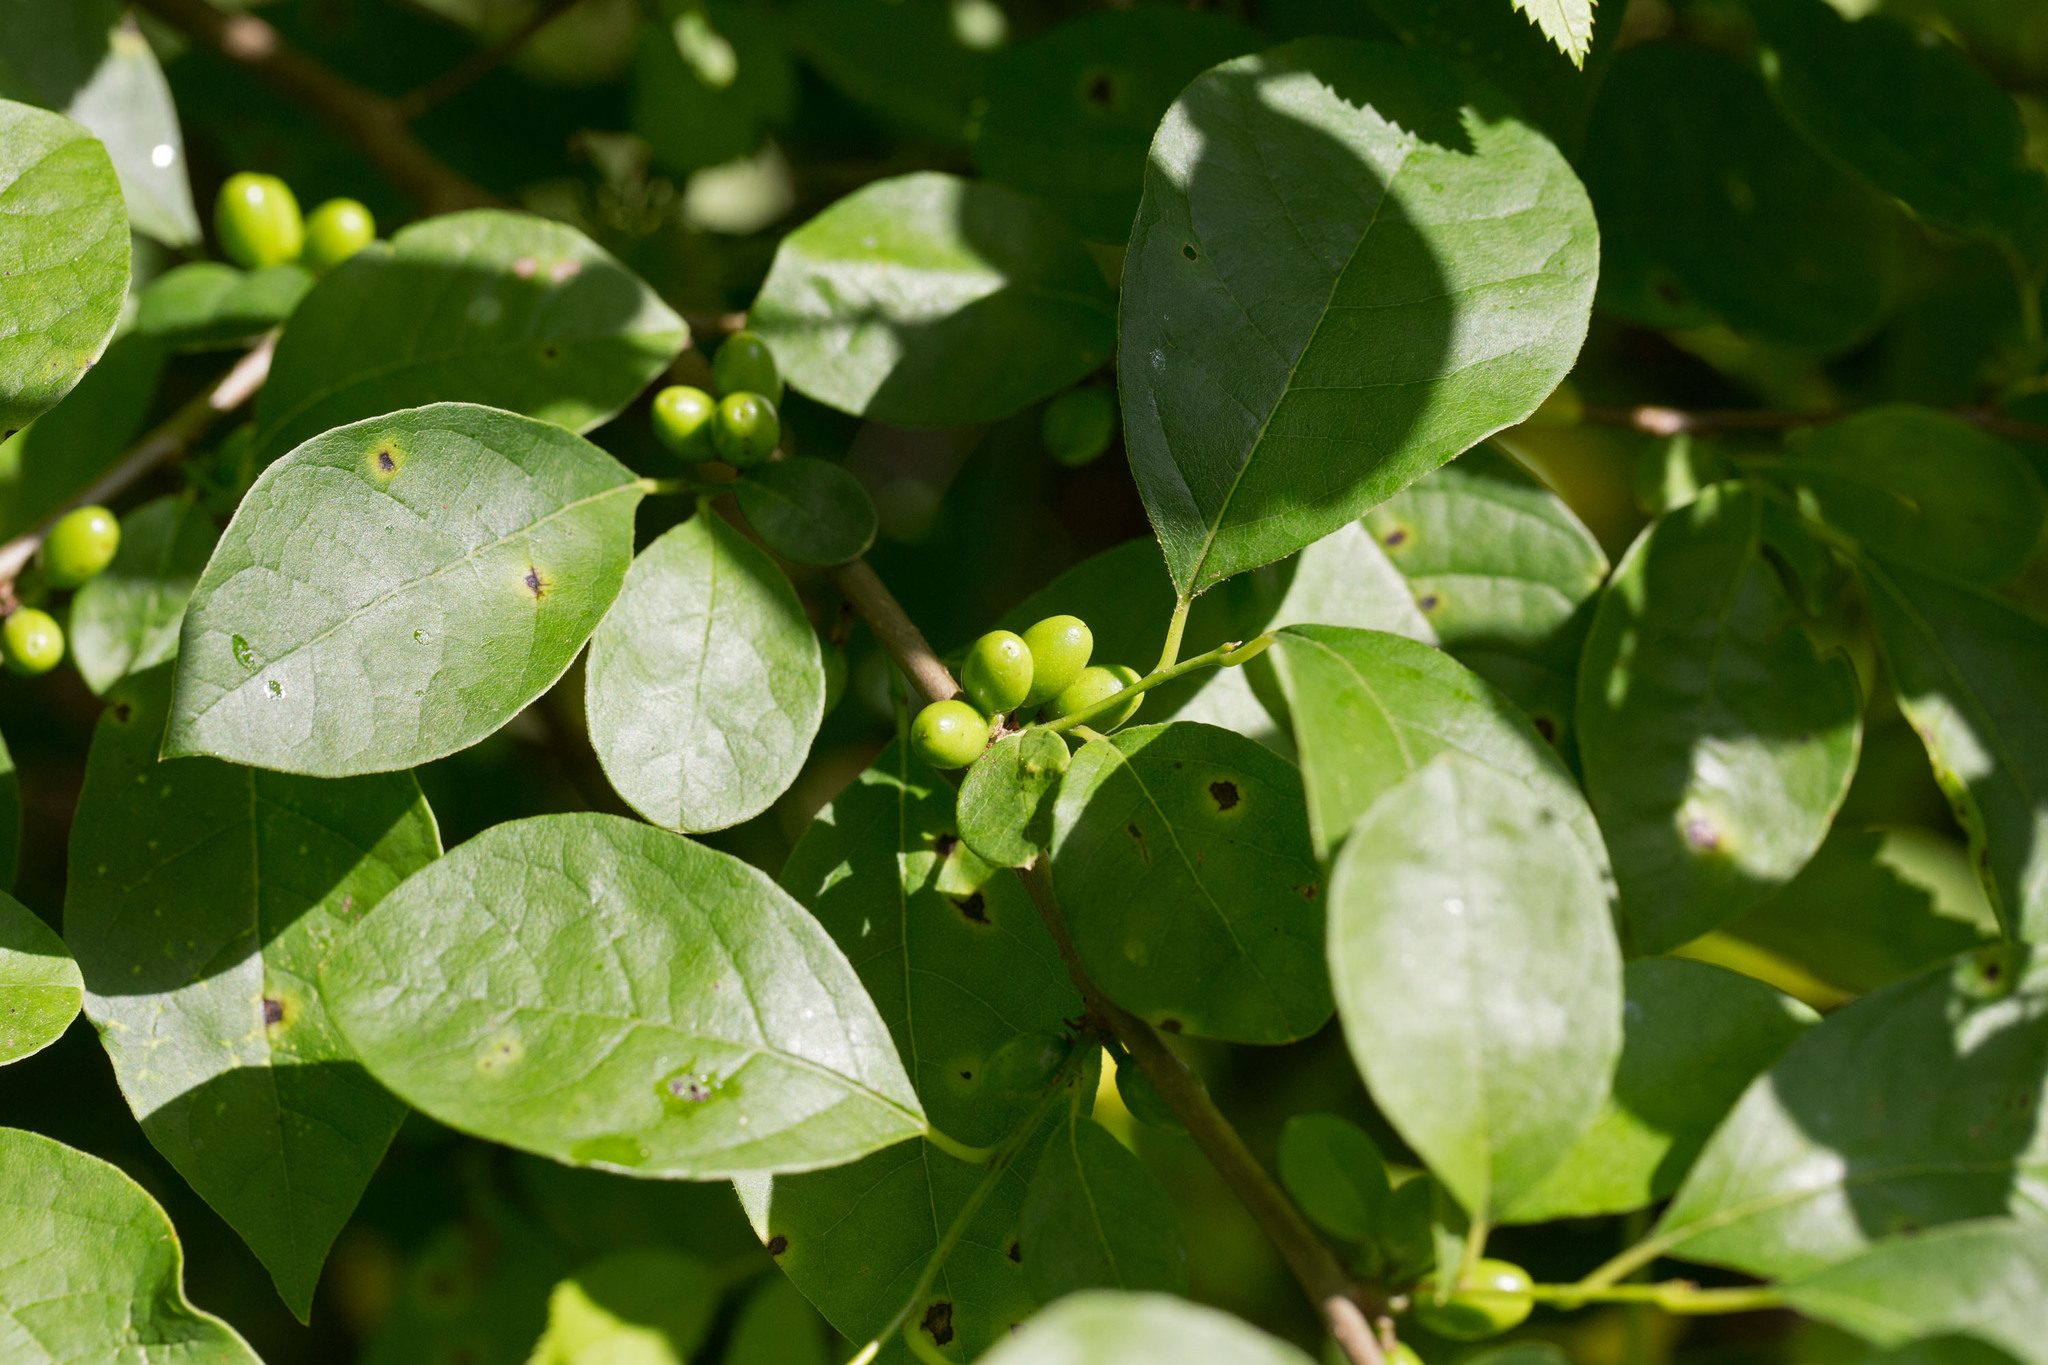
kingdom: Plantae
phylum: Tracheophyta
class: Magnoliopsida
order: Laurales
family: Lauraceae
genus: Lindera
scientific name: Lindera benzoin
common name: Spicebush
